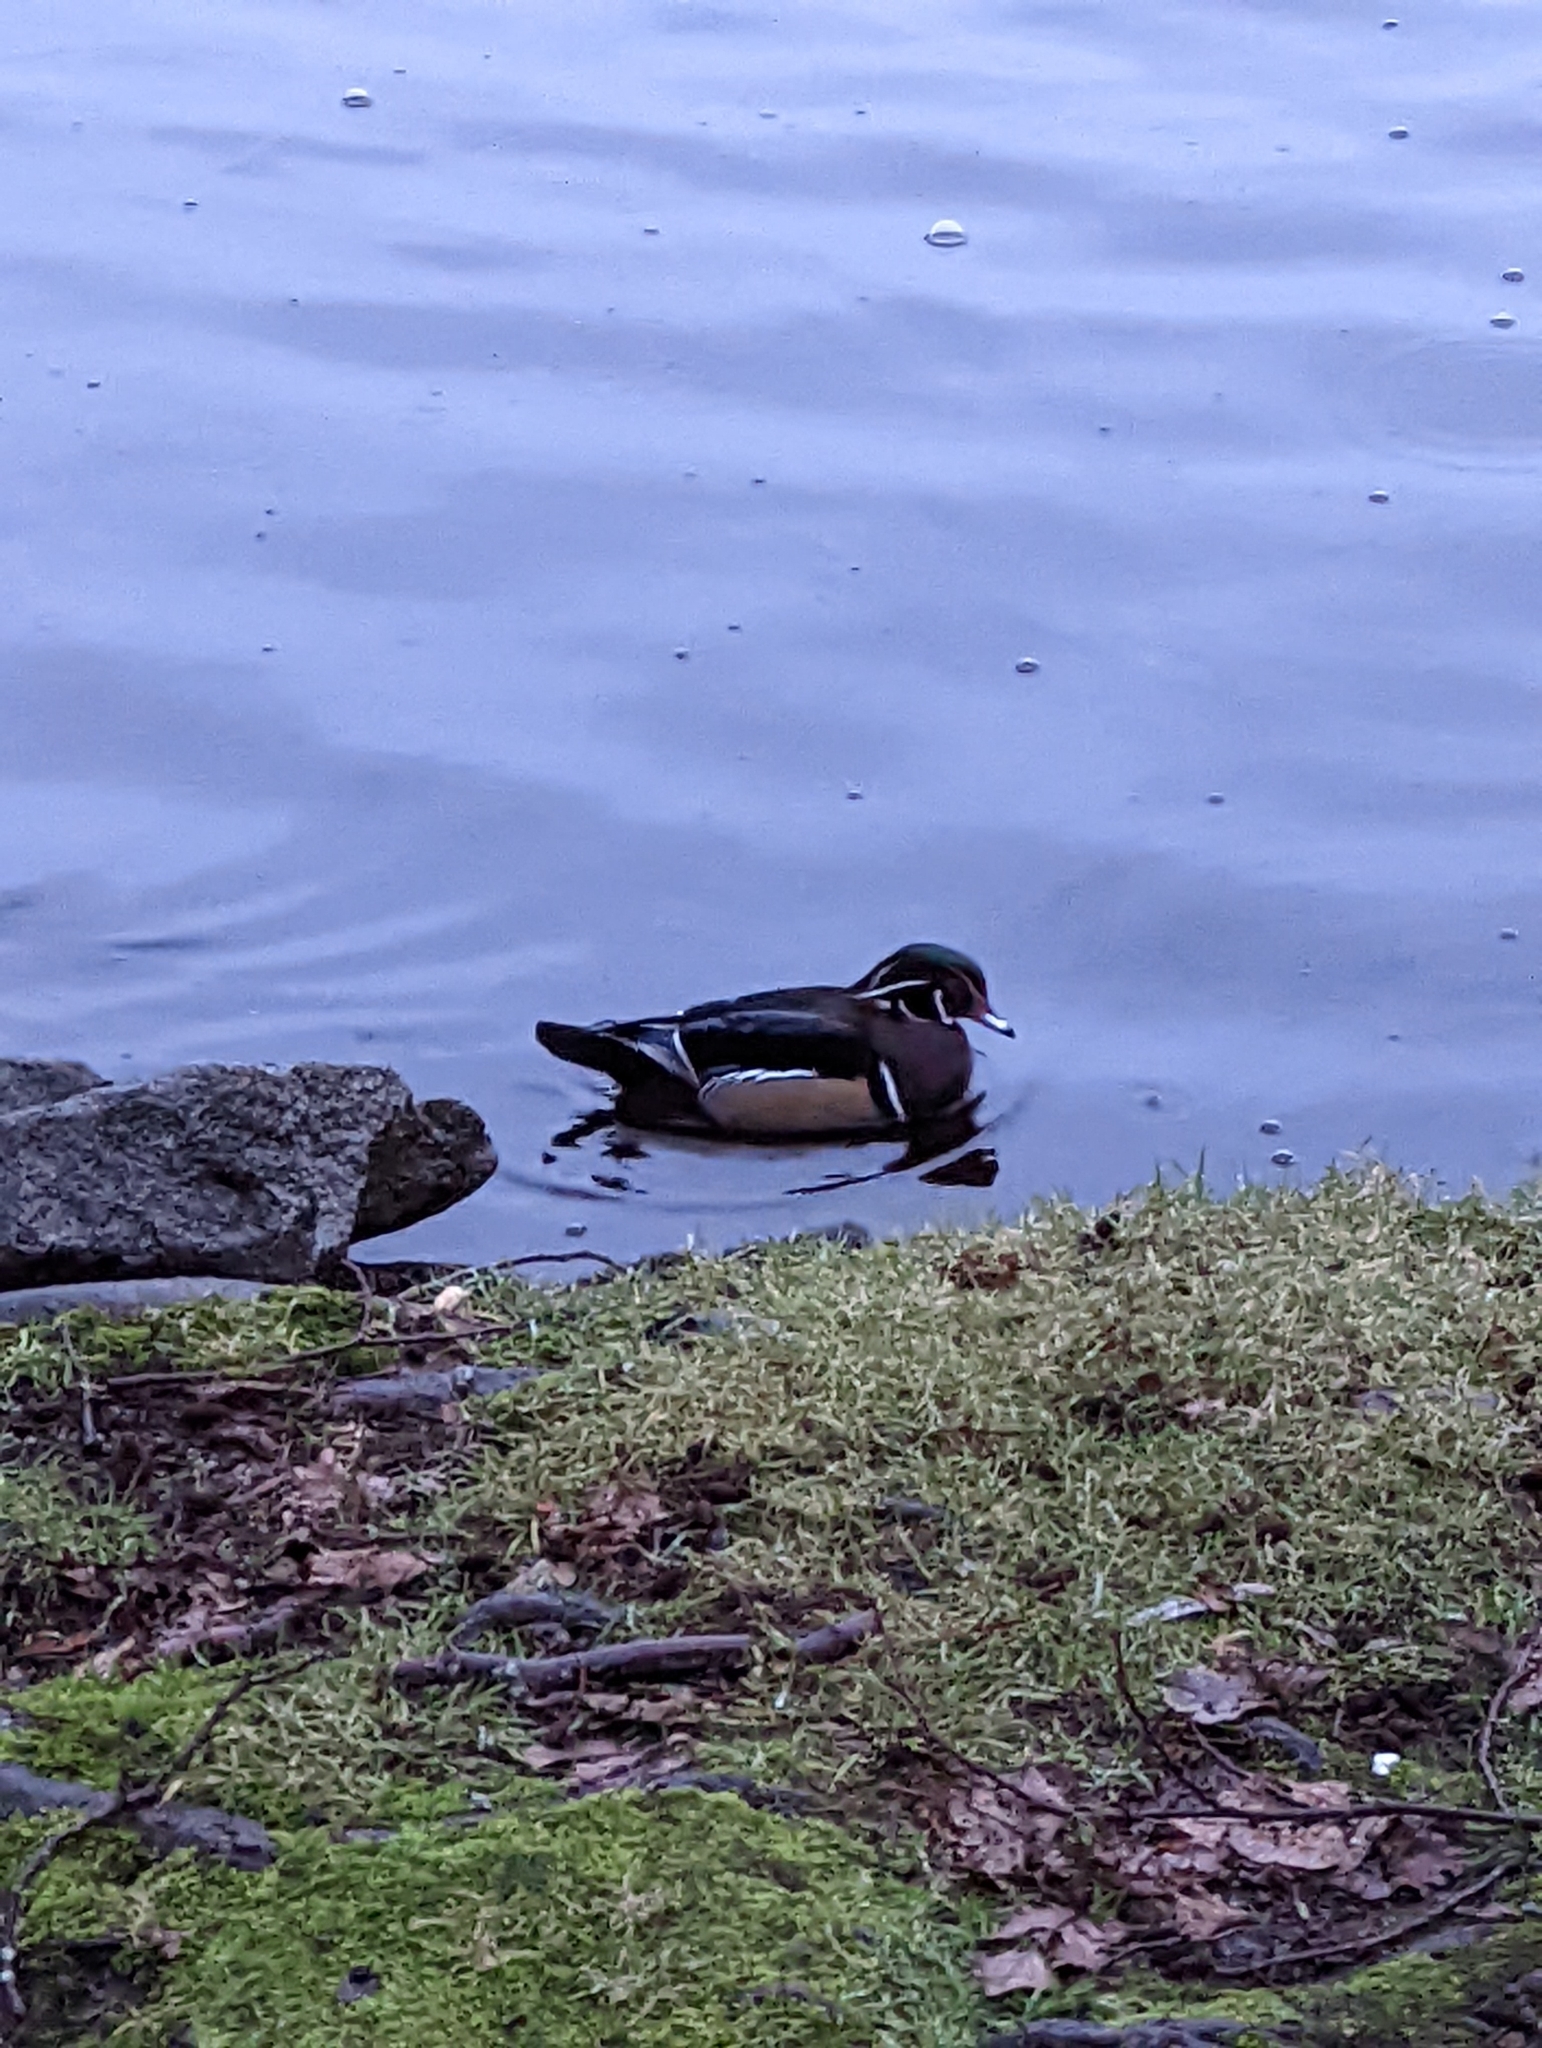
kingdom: Animalia
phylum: Chordata
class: Aves
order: Anseriformes
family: Anatidae
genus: Aix
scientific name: Aix sponsa
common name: Wood duck
